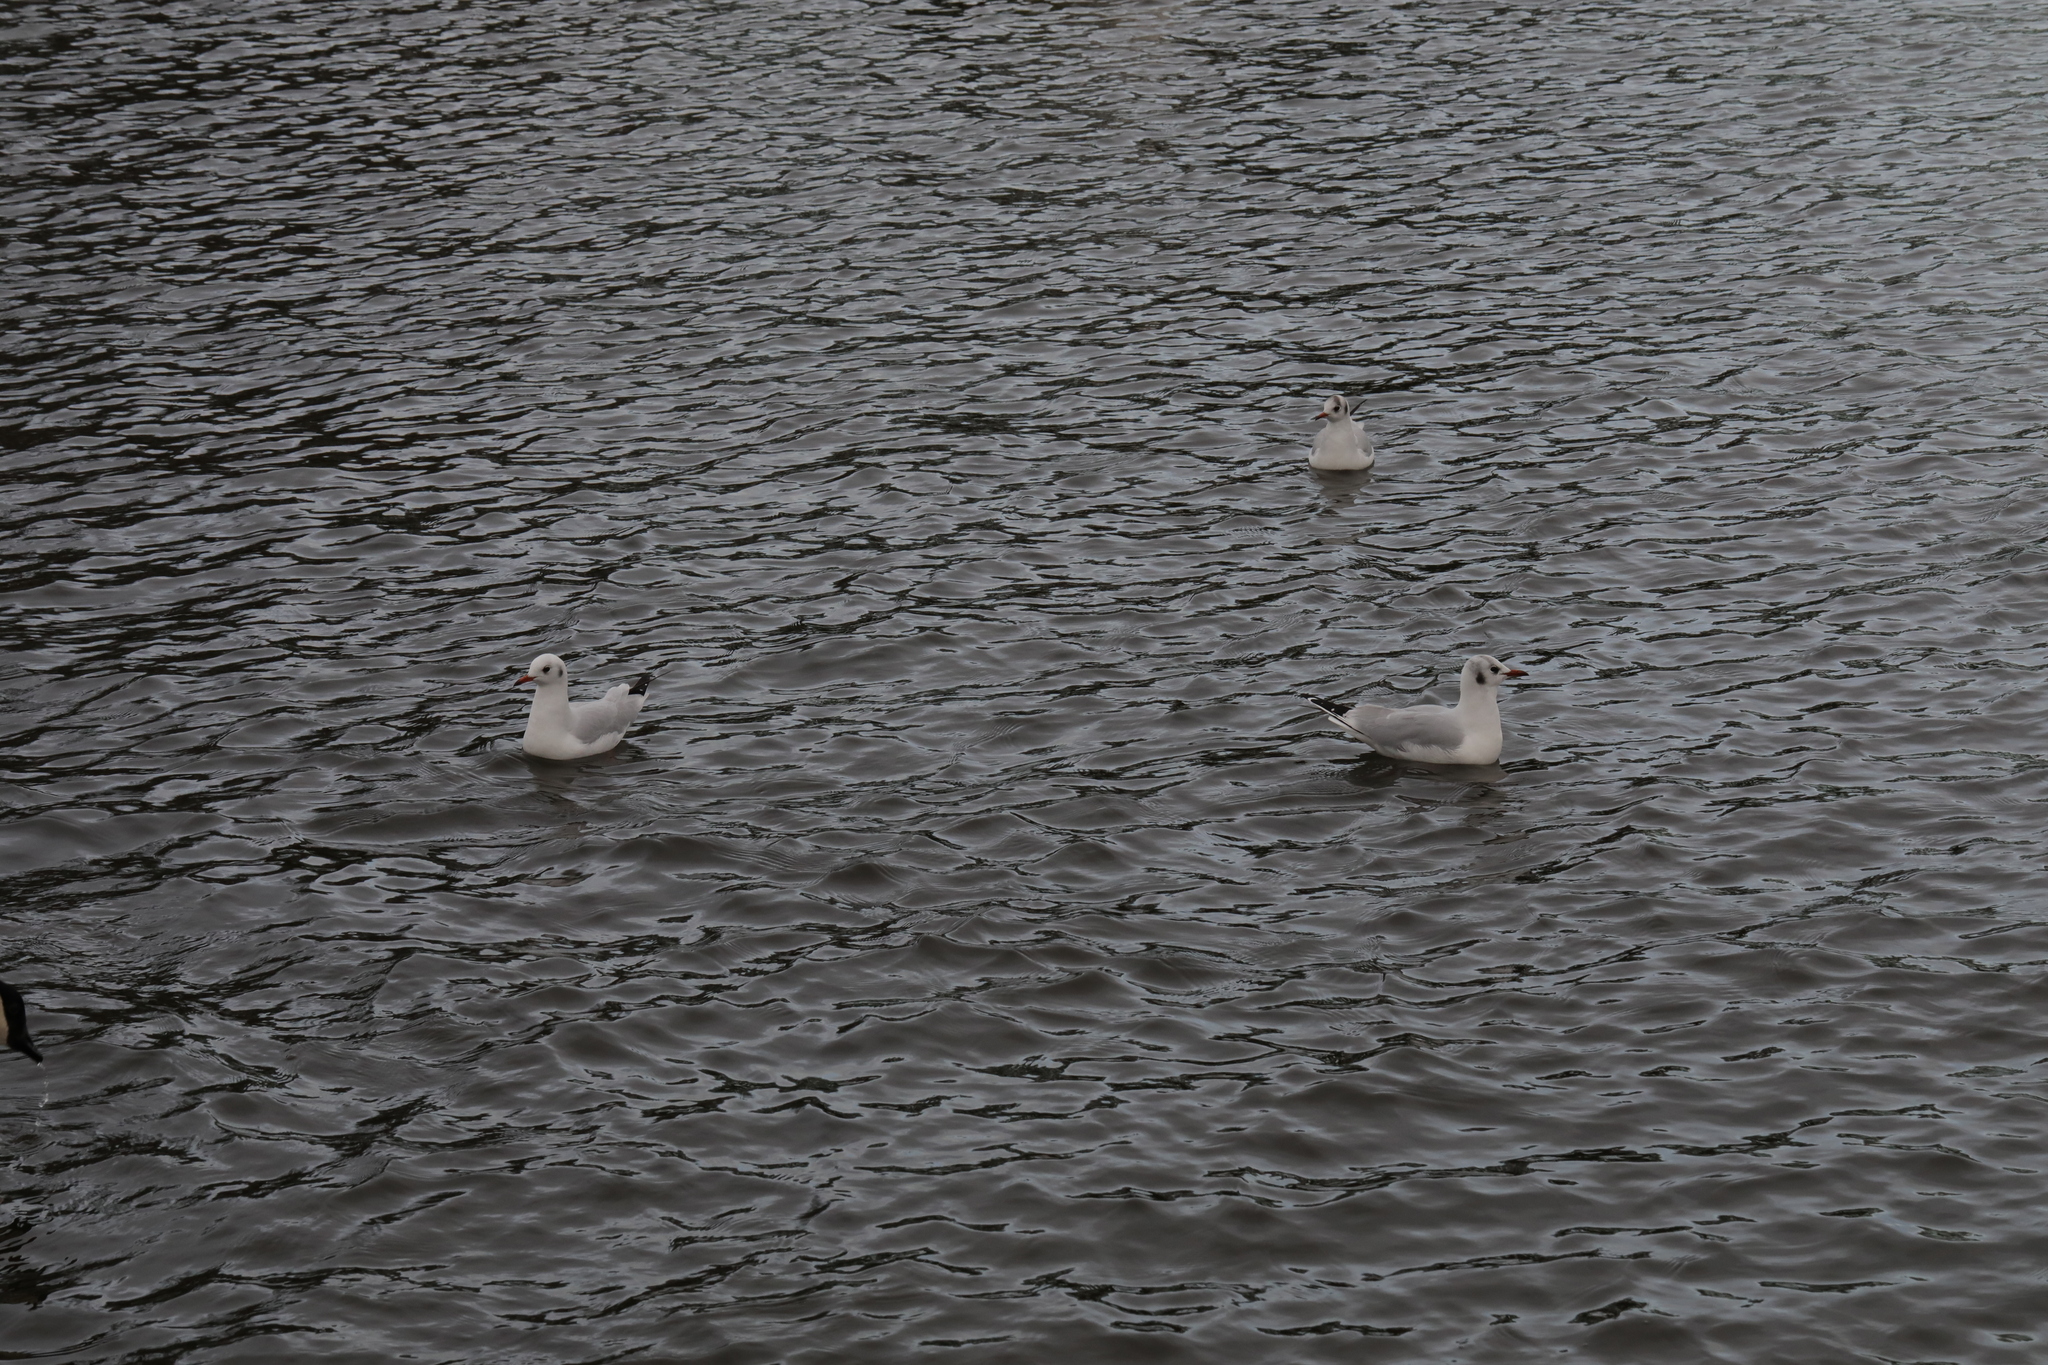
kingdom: Animalia
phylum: Chordata
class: Aves
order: Charadriiformes
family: Laridae
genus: Chroicocephalus
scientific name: Chroicocephalus ridibundus
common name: Black-headed gull
